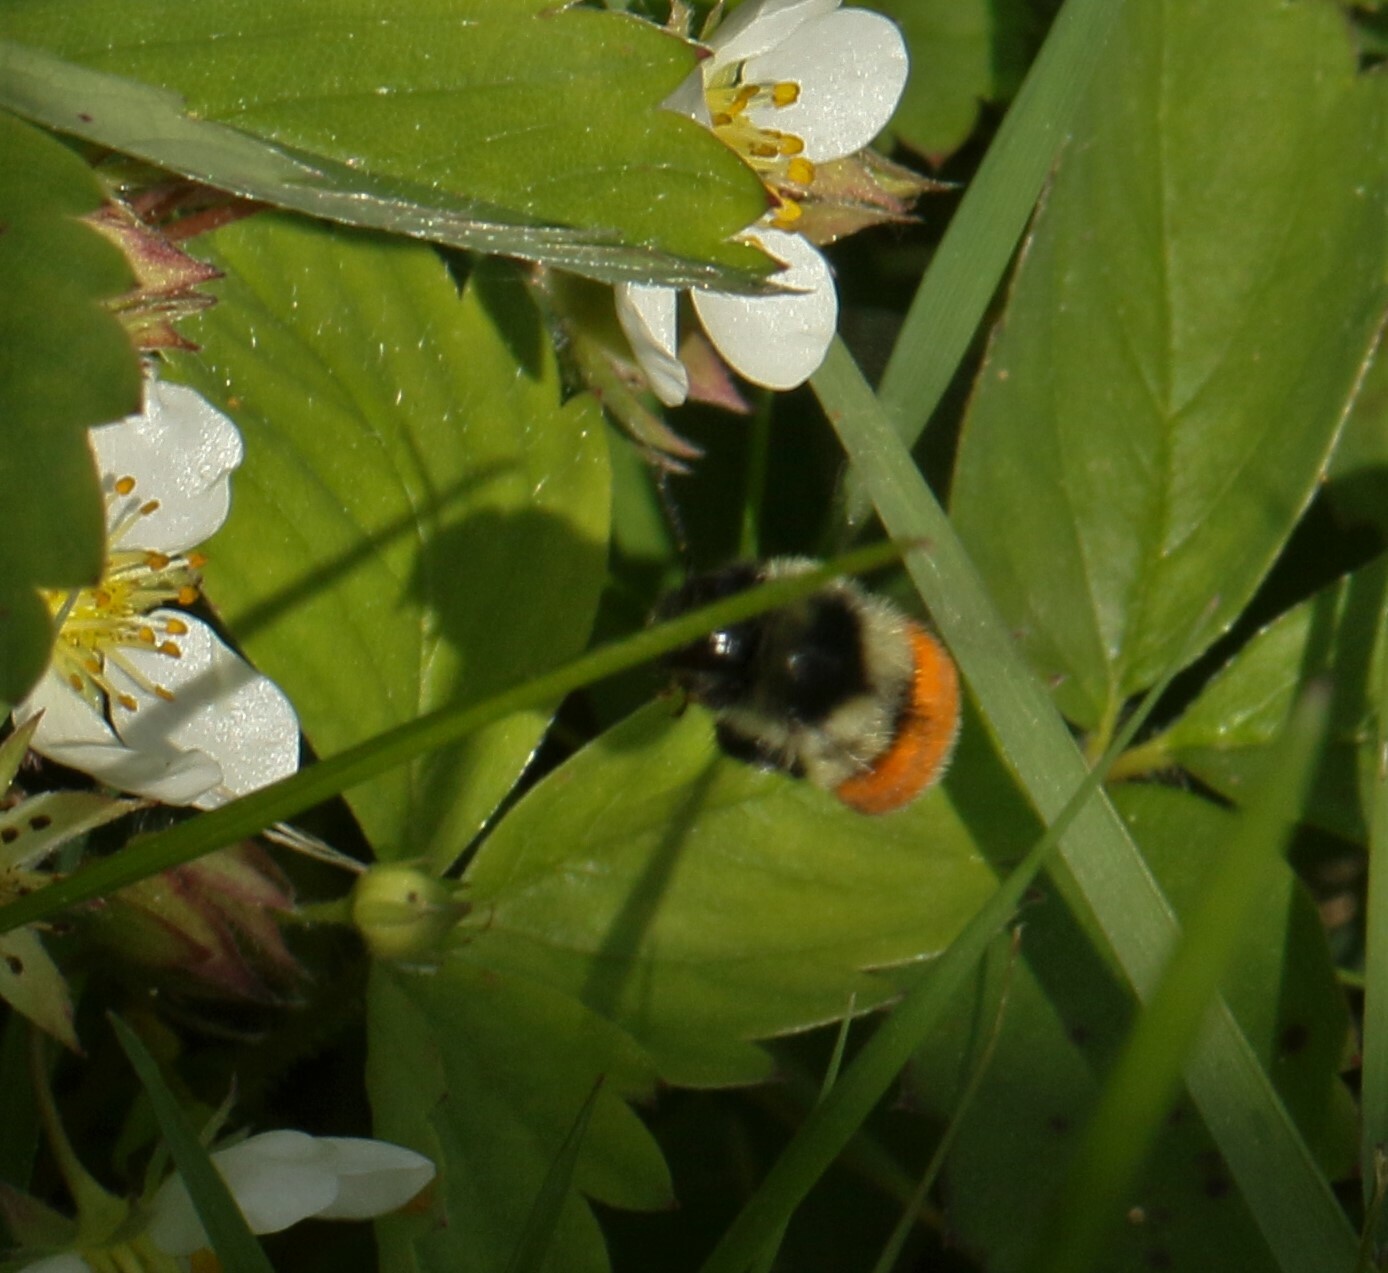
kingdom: Animalia
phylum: Arthropoda
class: Insecta
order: Hymenoptera
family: Apidae
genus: Bombus
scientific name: Bombus ternarius
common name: Tri-colored bumble bee
